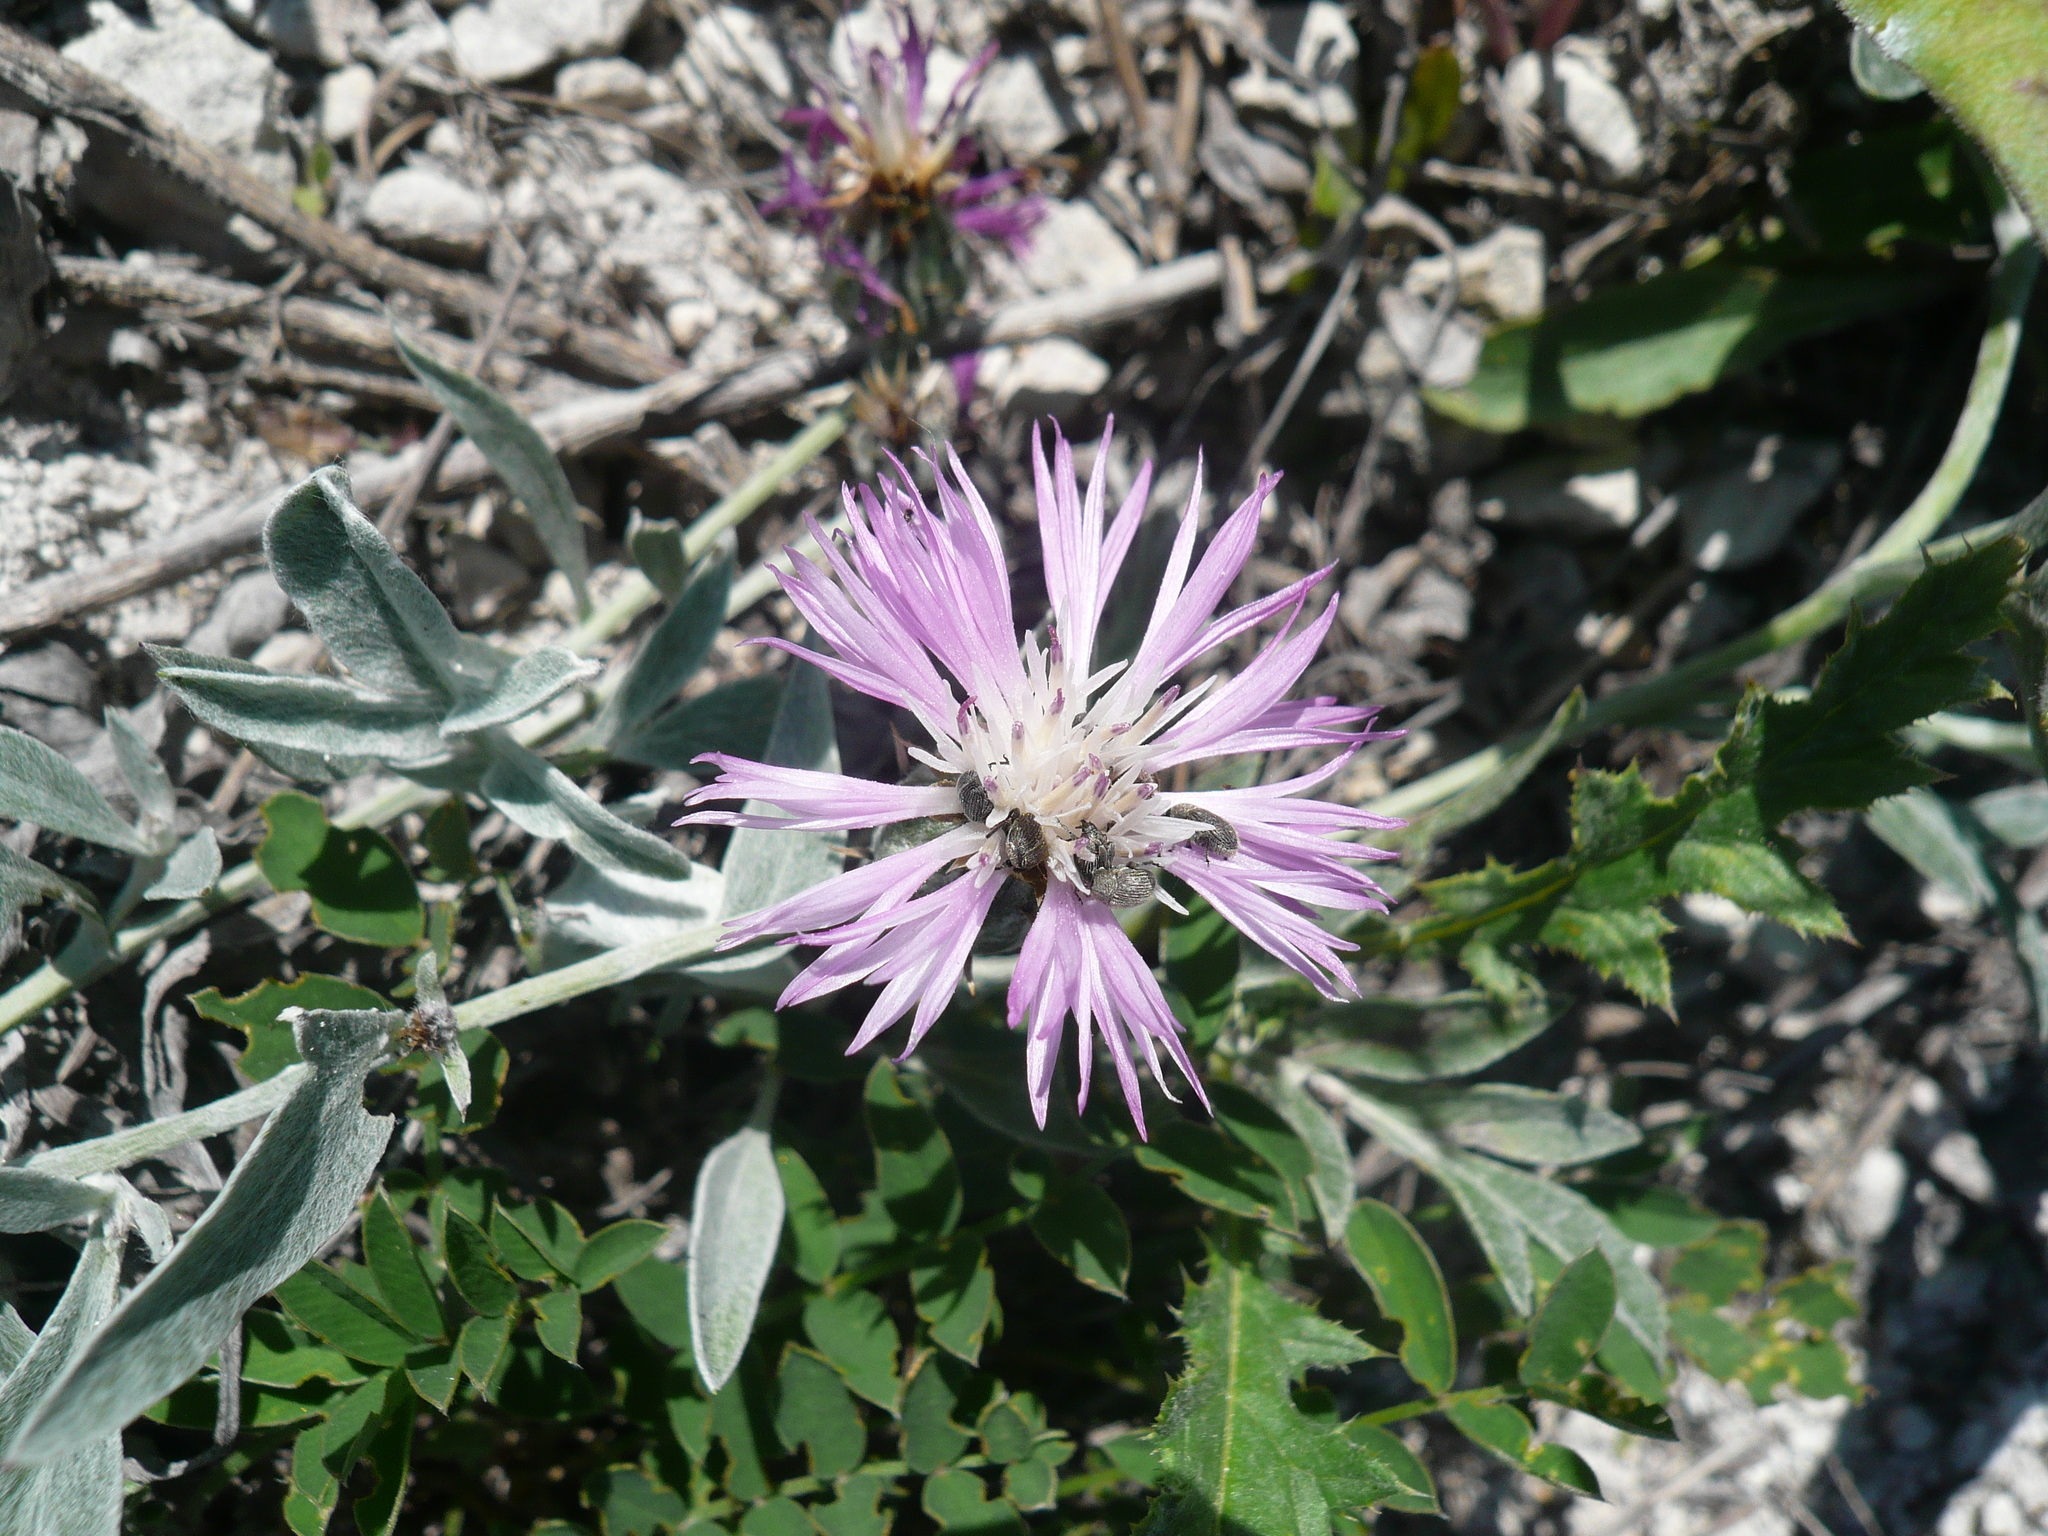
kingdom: Plantae
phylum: Tracheophyta
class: Magnoliopsida
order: Asterales
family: Asteraceae
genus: Psephellus
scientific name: Psephellus marschallianus
